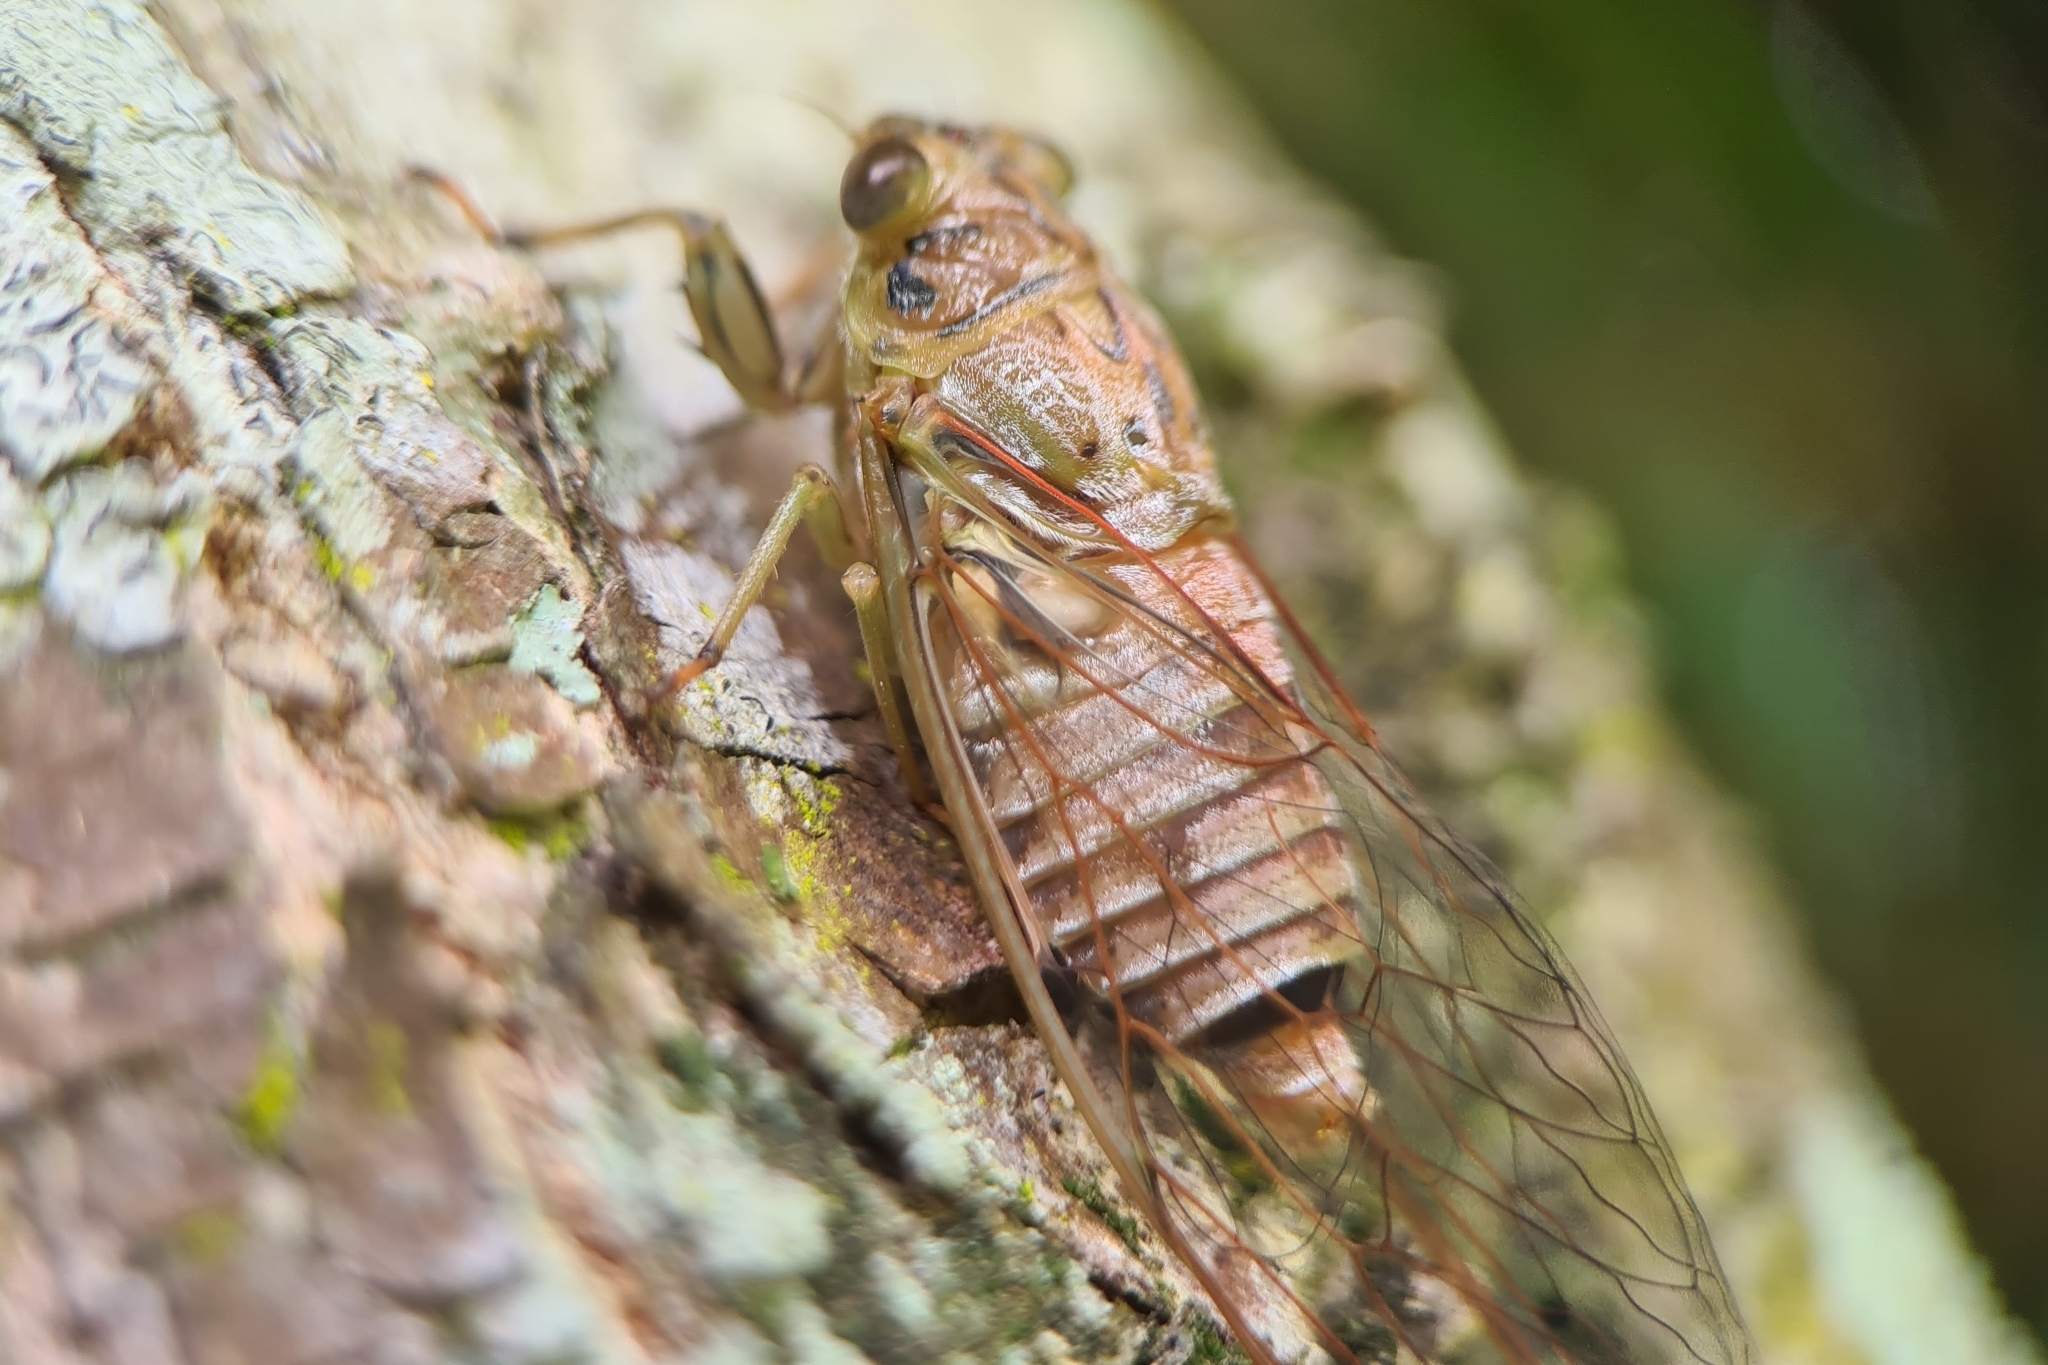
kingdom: Animalia
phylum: Arthropoda
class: Insecta
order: Hemiptera
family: Cicadidae
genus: Tamasa
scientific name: Tamasa tristigma
